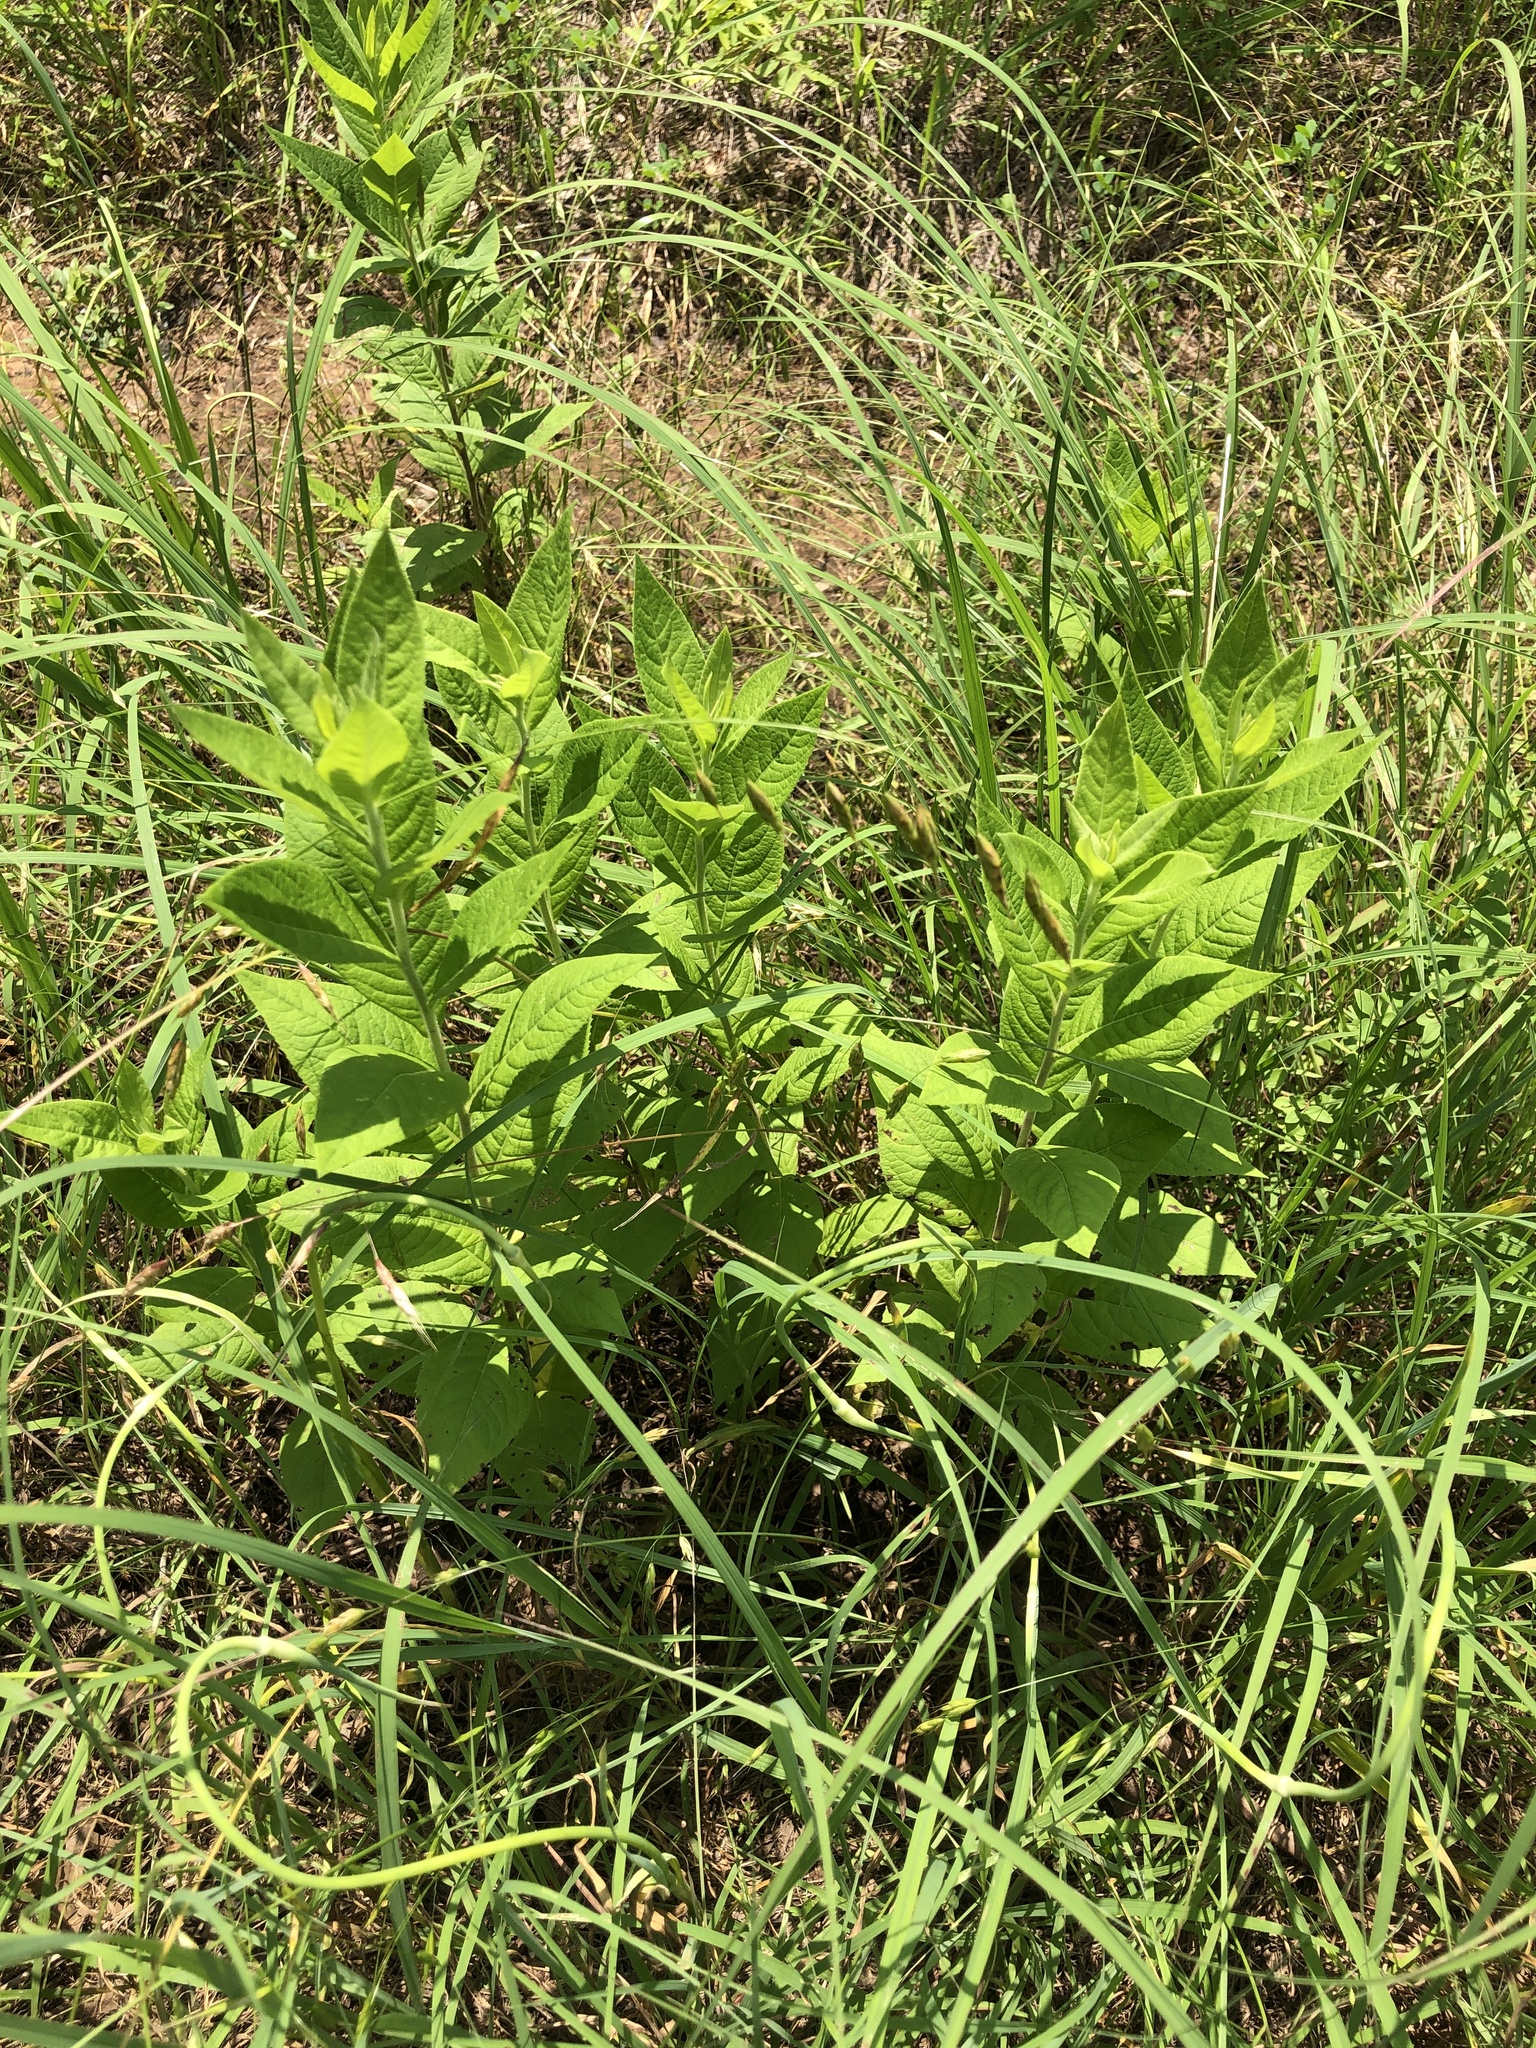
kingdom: Plantae
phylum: Tracheophyta
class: Magnoliopsida
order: Asterales
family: Asteraceae
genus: Vernonia
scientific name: Vernonia baldwinii
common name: Western ironweed
